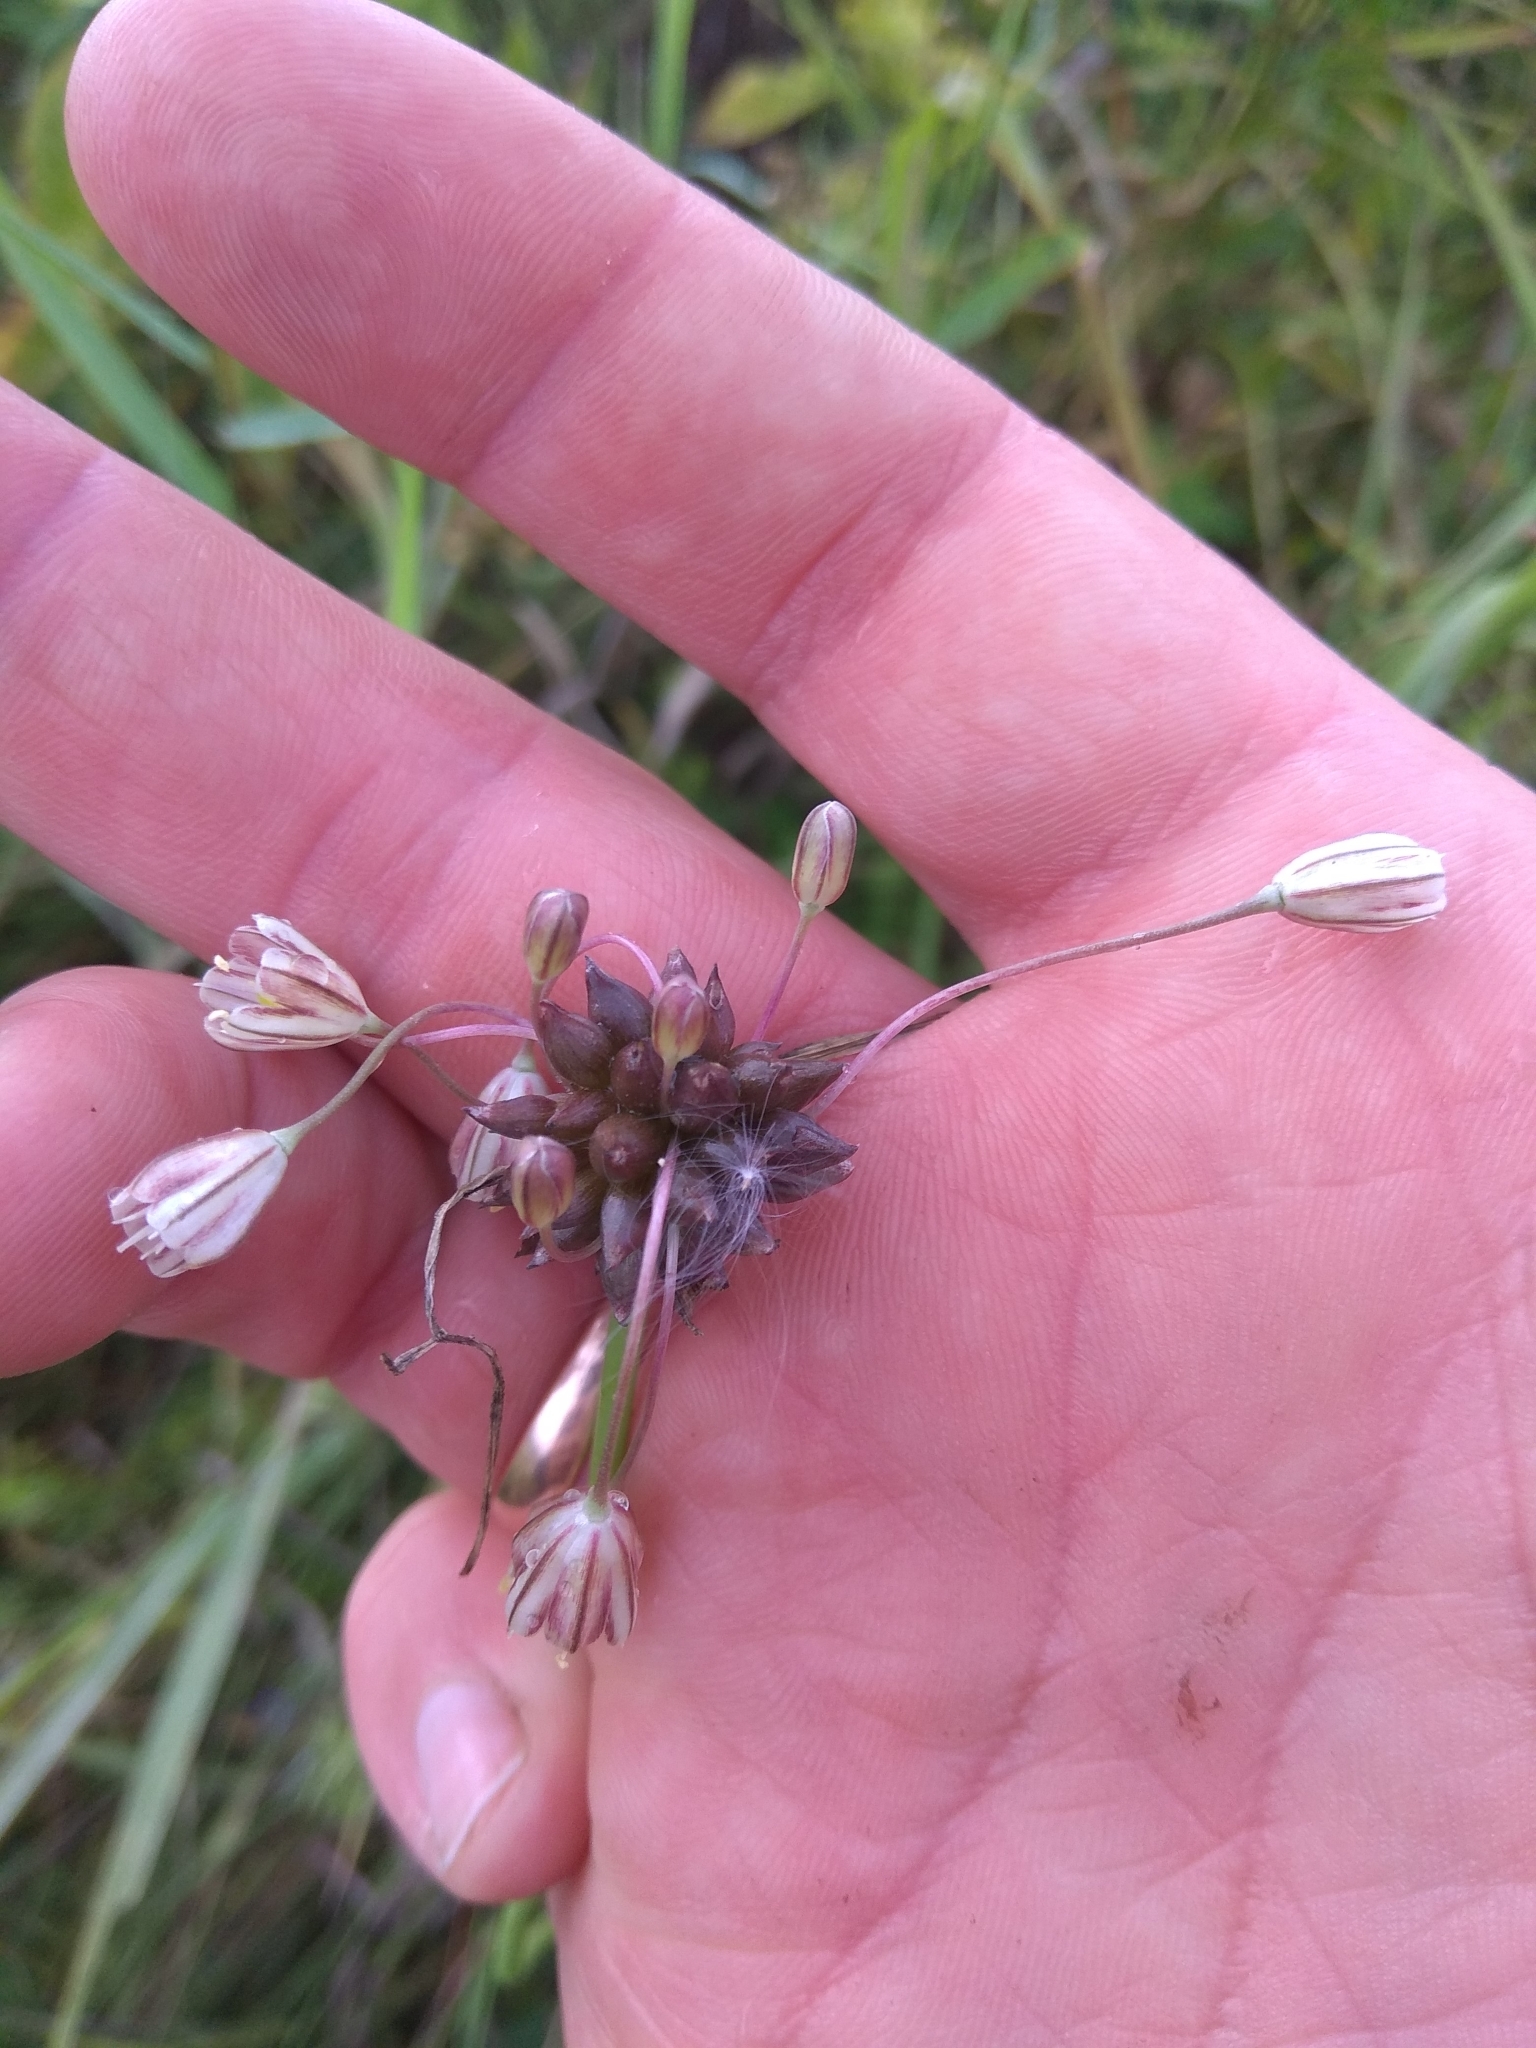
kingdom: Plantae
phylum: Tracheophyta
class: Liliopsida
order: Asparagales
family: Amaryllidaceae
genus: Allium
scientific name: Allium oleraceum
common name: Field garlic
